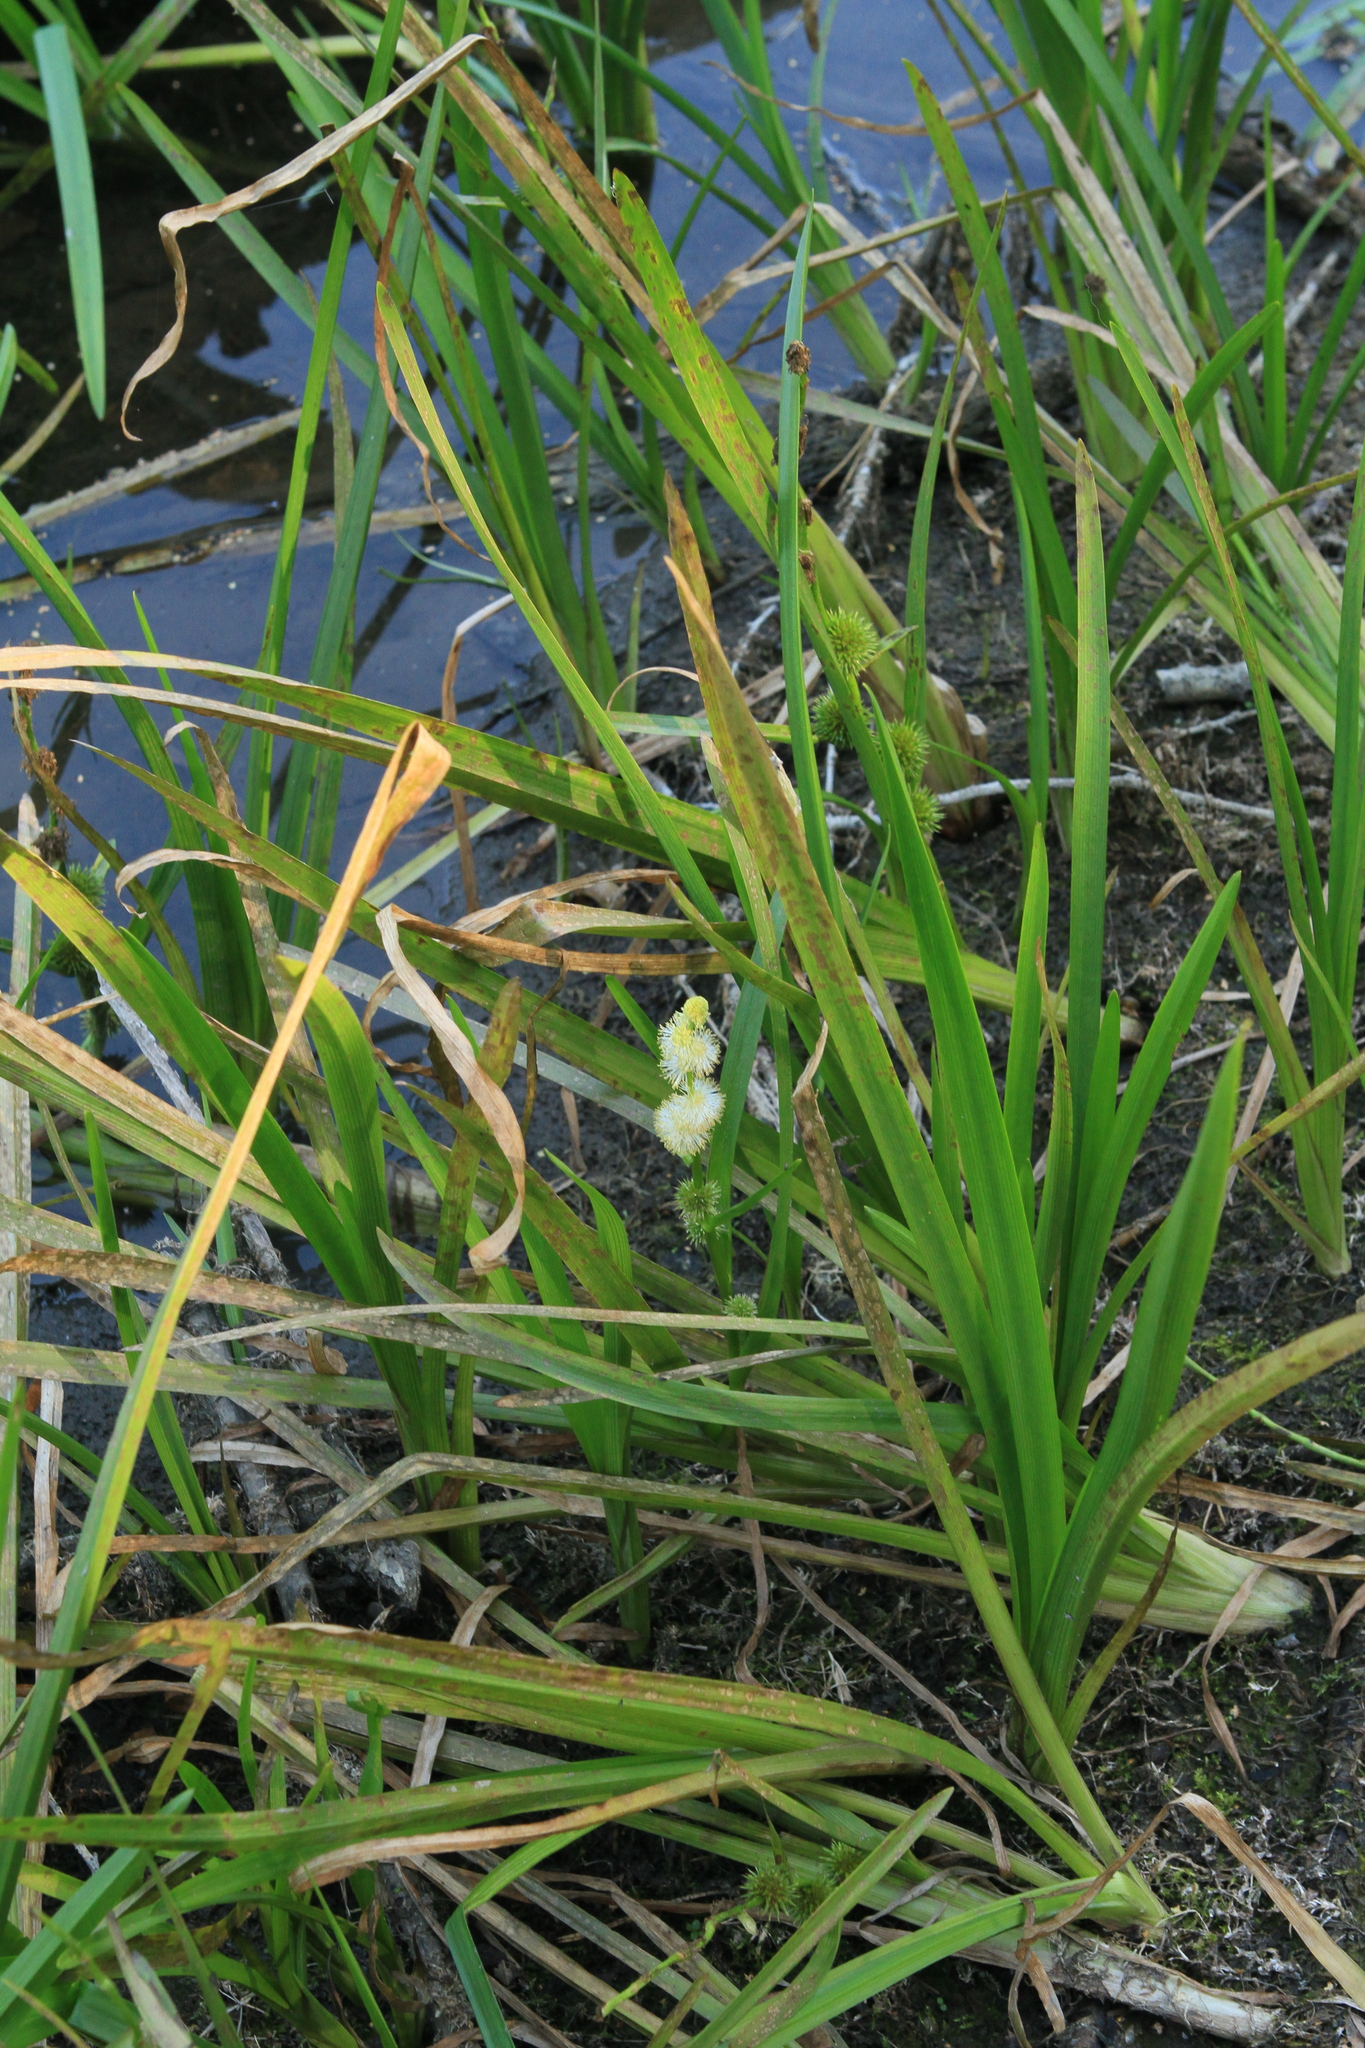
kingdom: Plantae
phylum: Tracheophyta
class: Liliopsida
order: Poales
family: Typhaceae
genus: Sparganium
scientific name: Sparganium emersum
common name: Unbranched bur-reed
